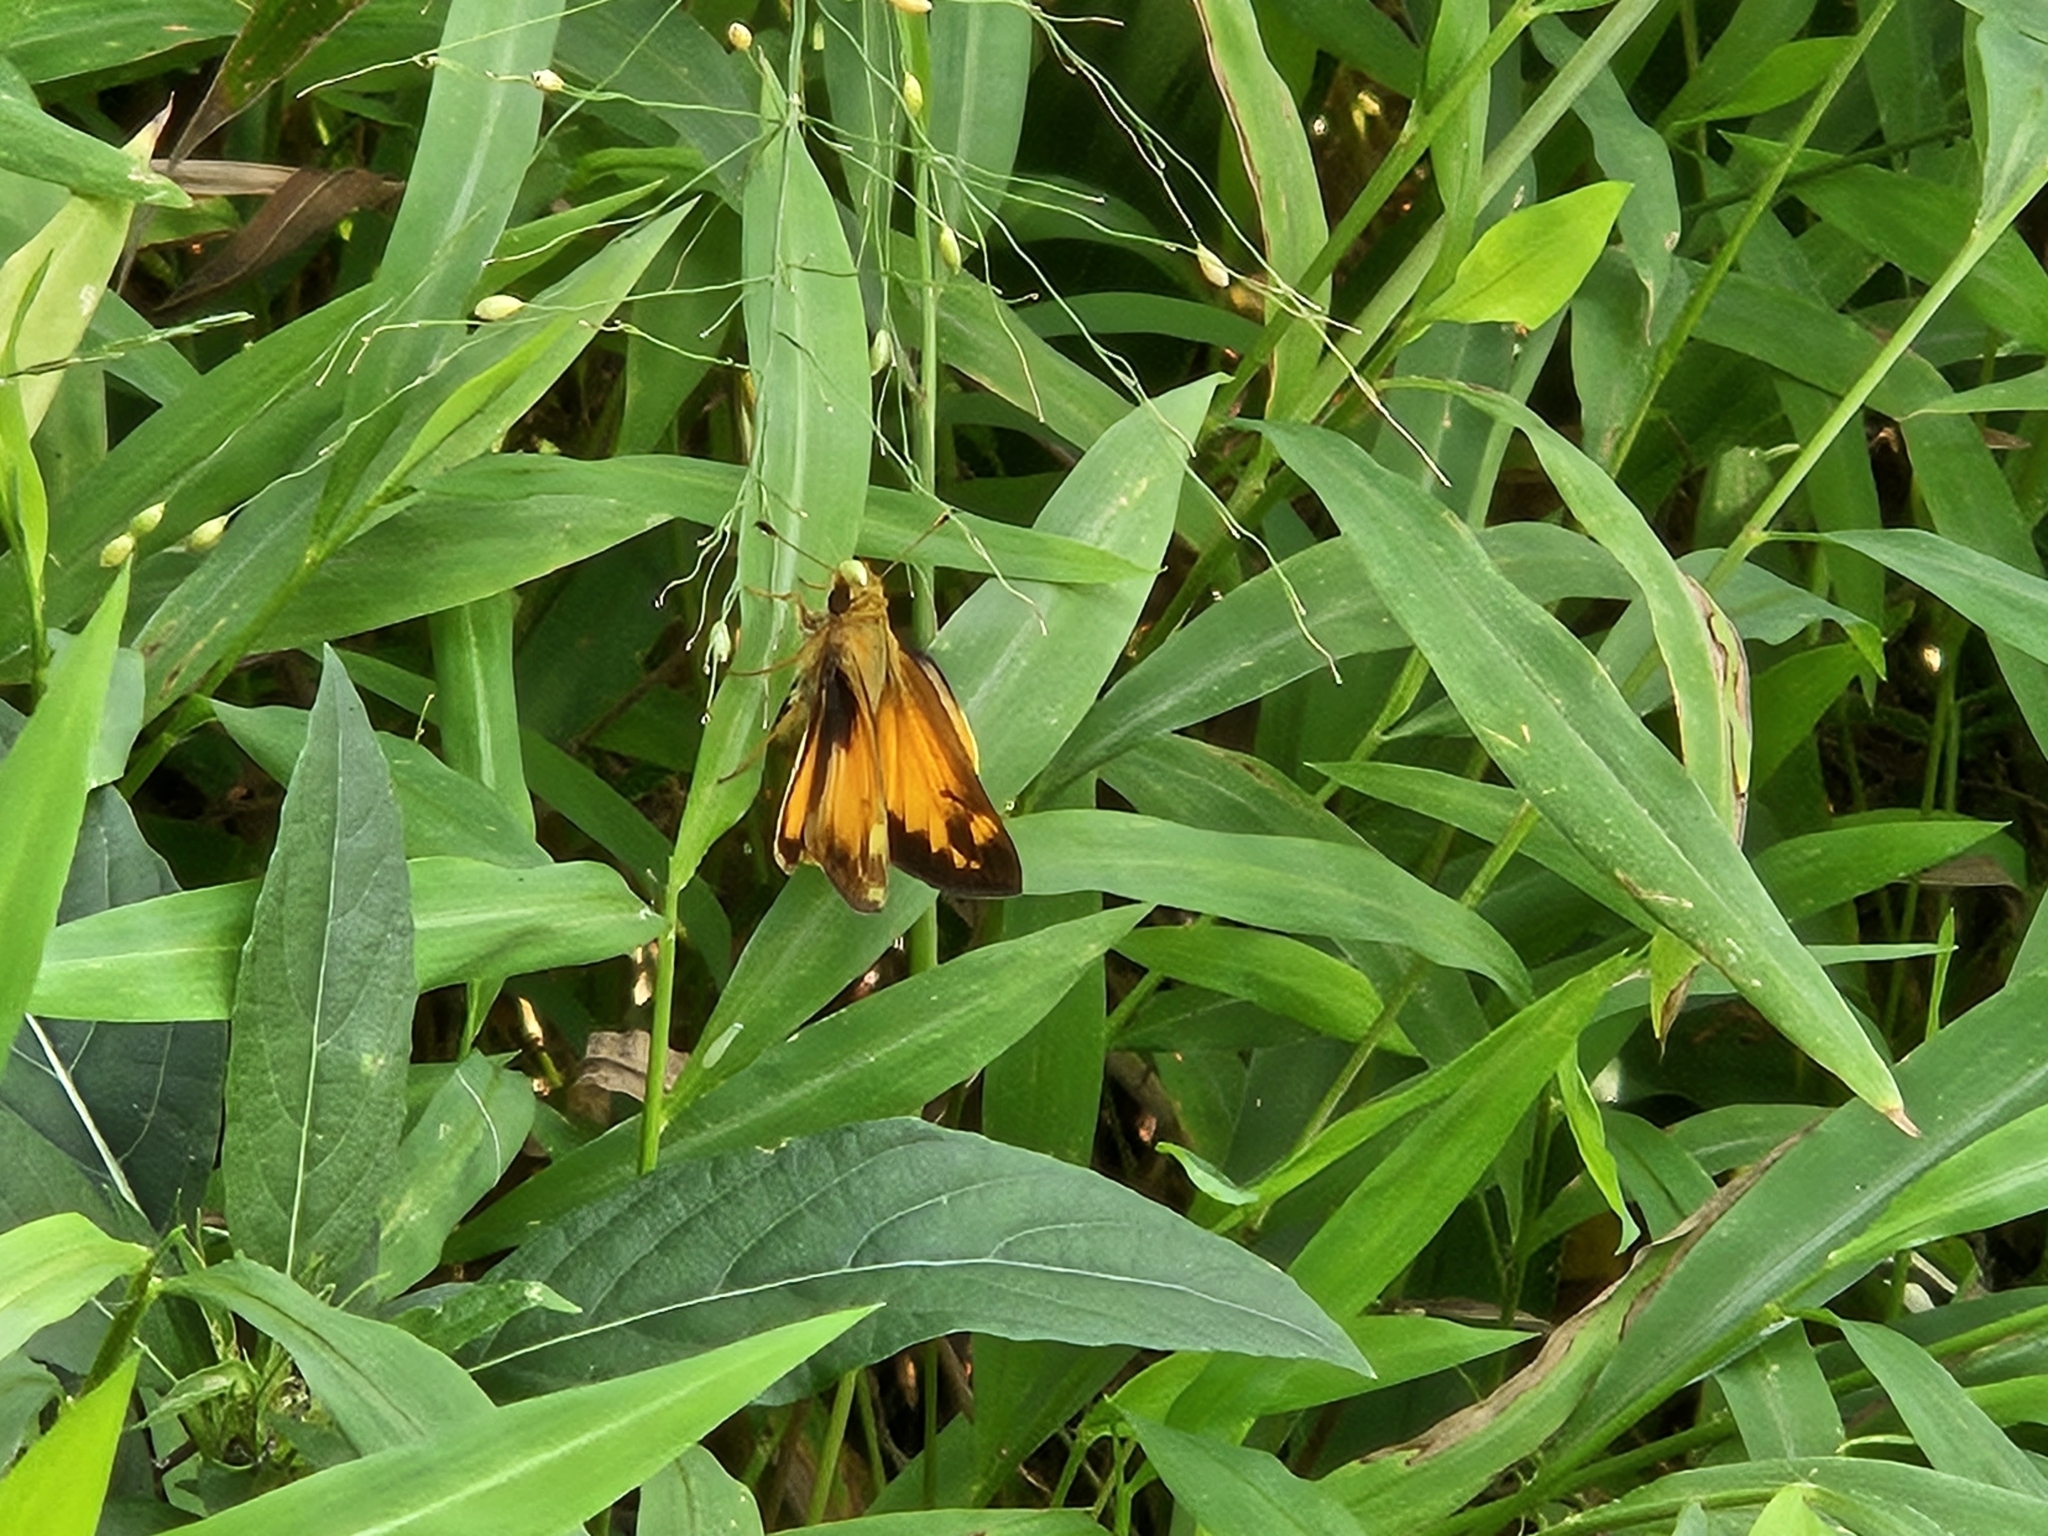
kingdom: Animalia
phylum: Arthropoda
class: Insecta
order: Lepidoptera
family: Hesperiidae
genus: Lon
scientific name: Lon zabulon
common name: Zabulon skipper
